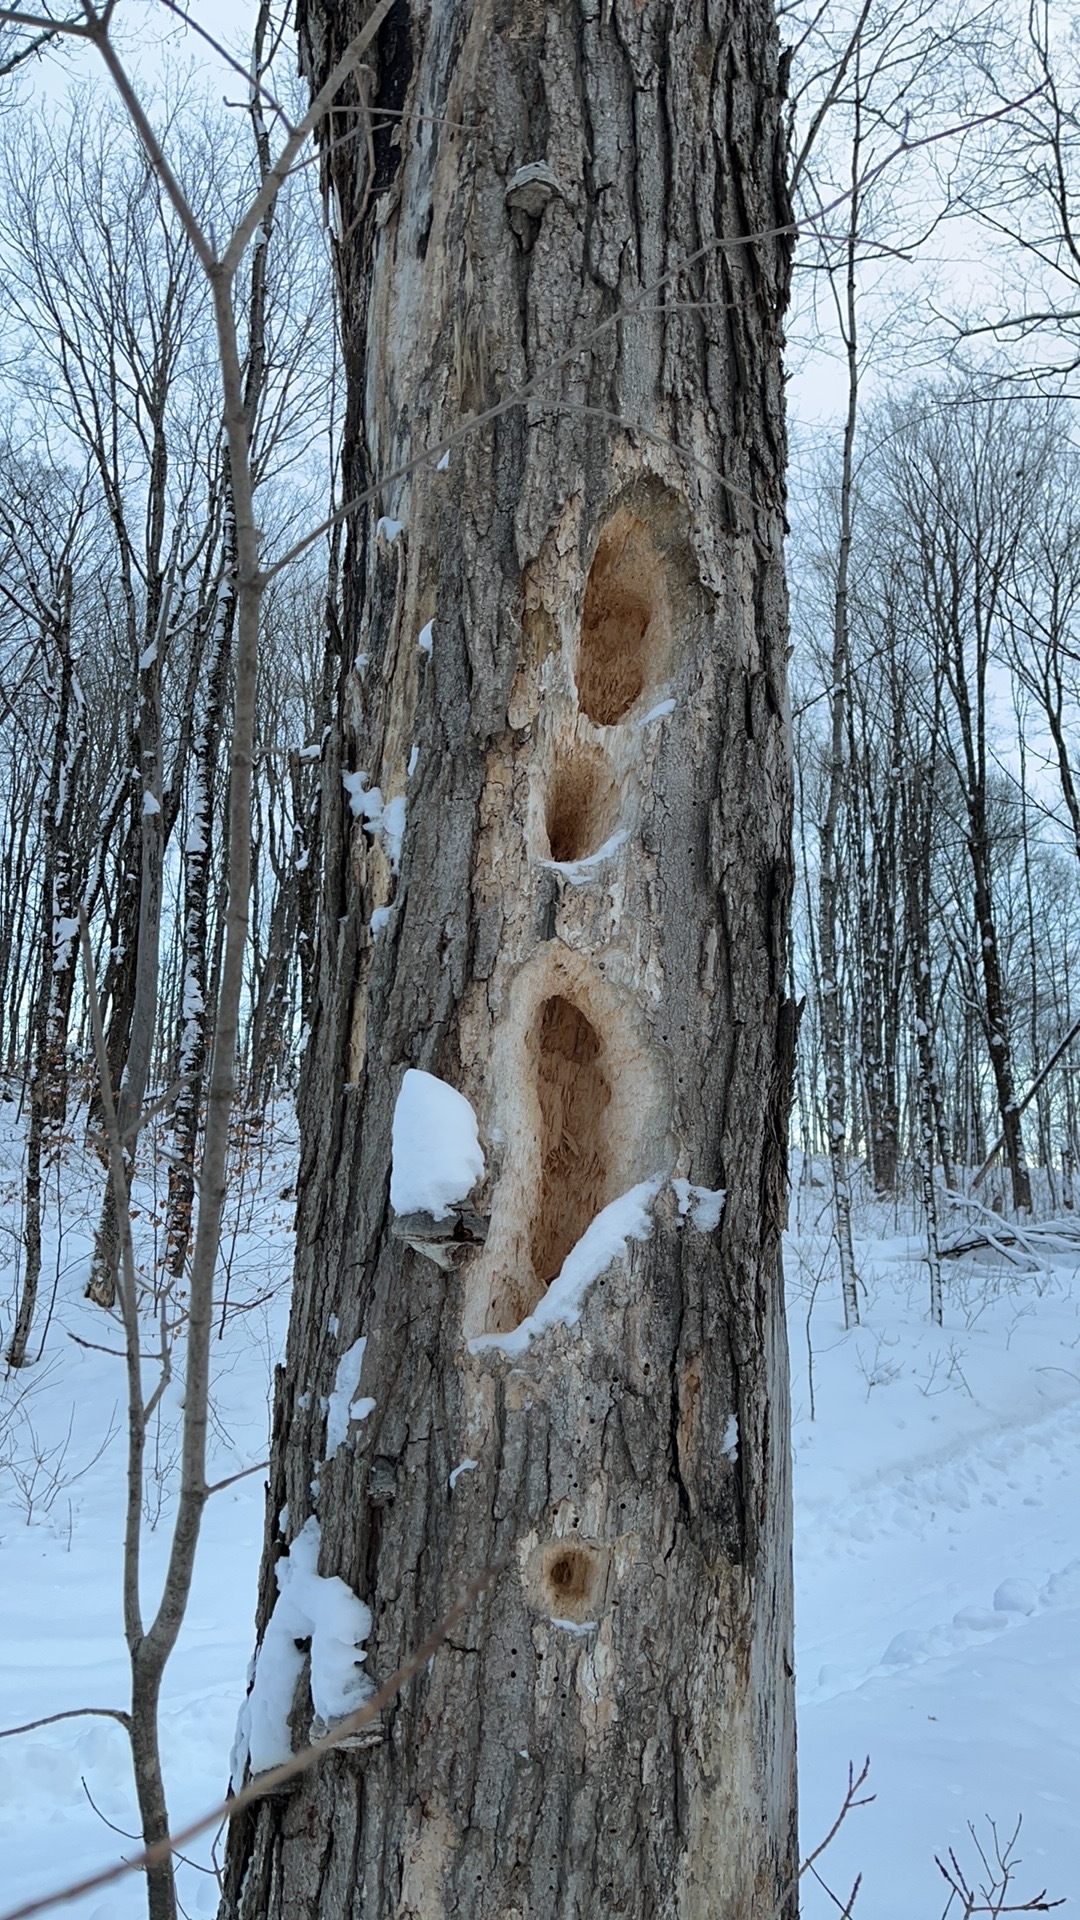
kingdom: Animalia
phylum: Chordata
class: Aves
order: Piciformes
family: Picidae
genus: Dryocopus
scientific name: Dryocopus pileatus
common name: Pileated woodpecker
